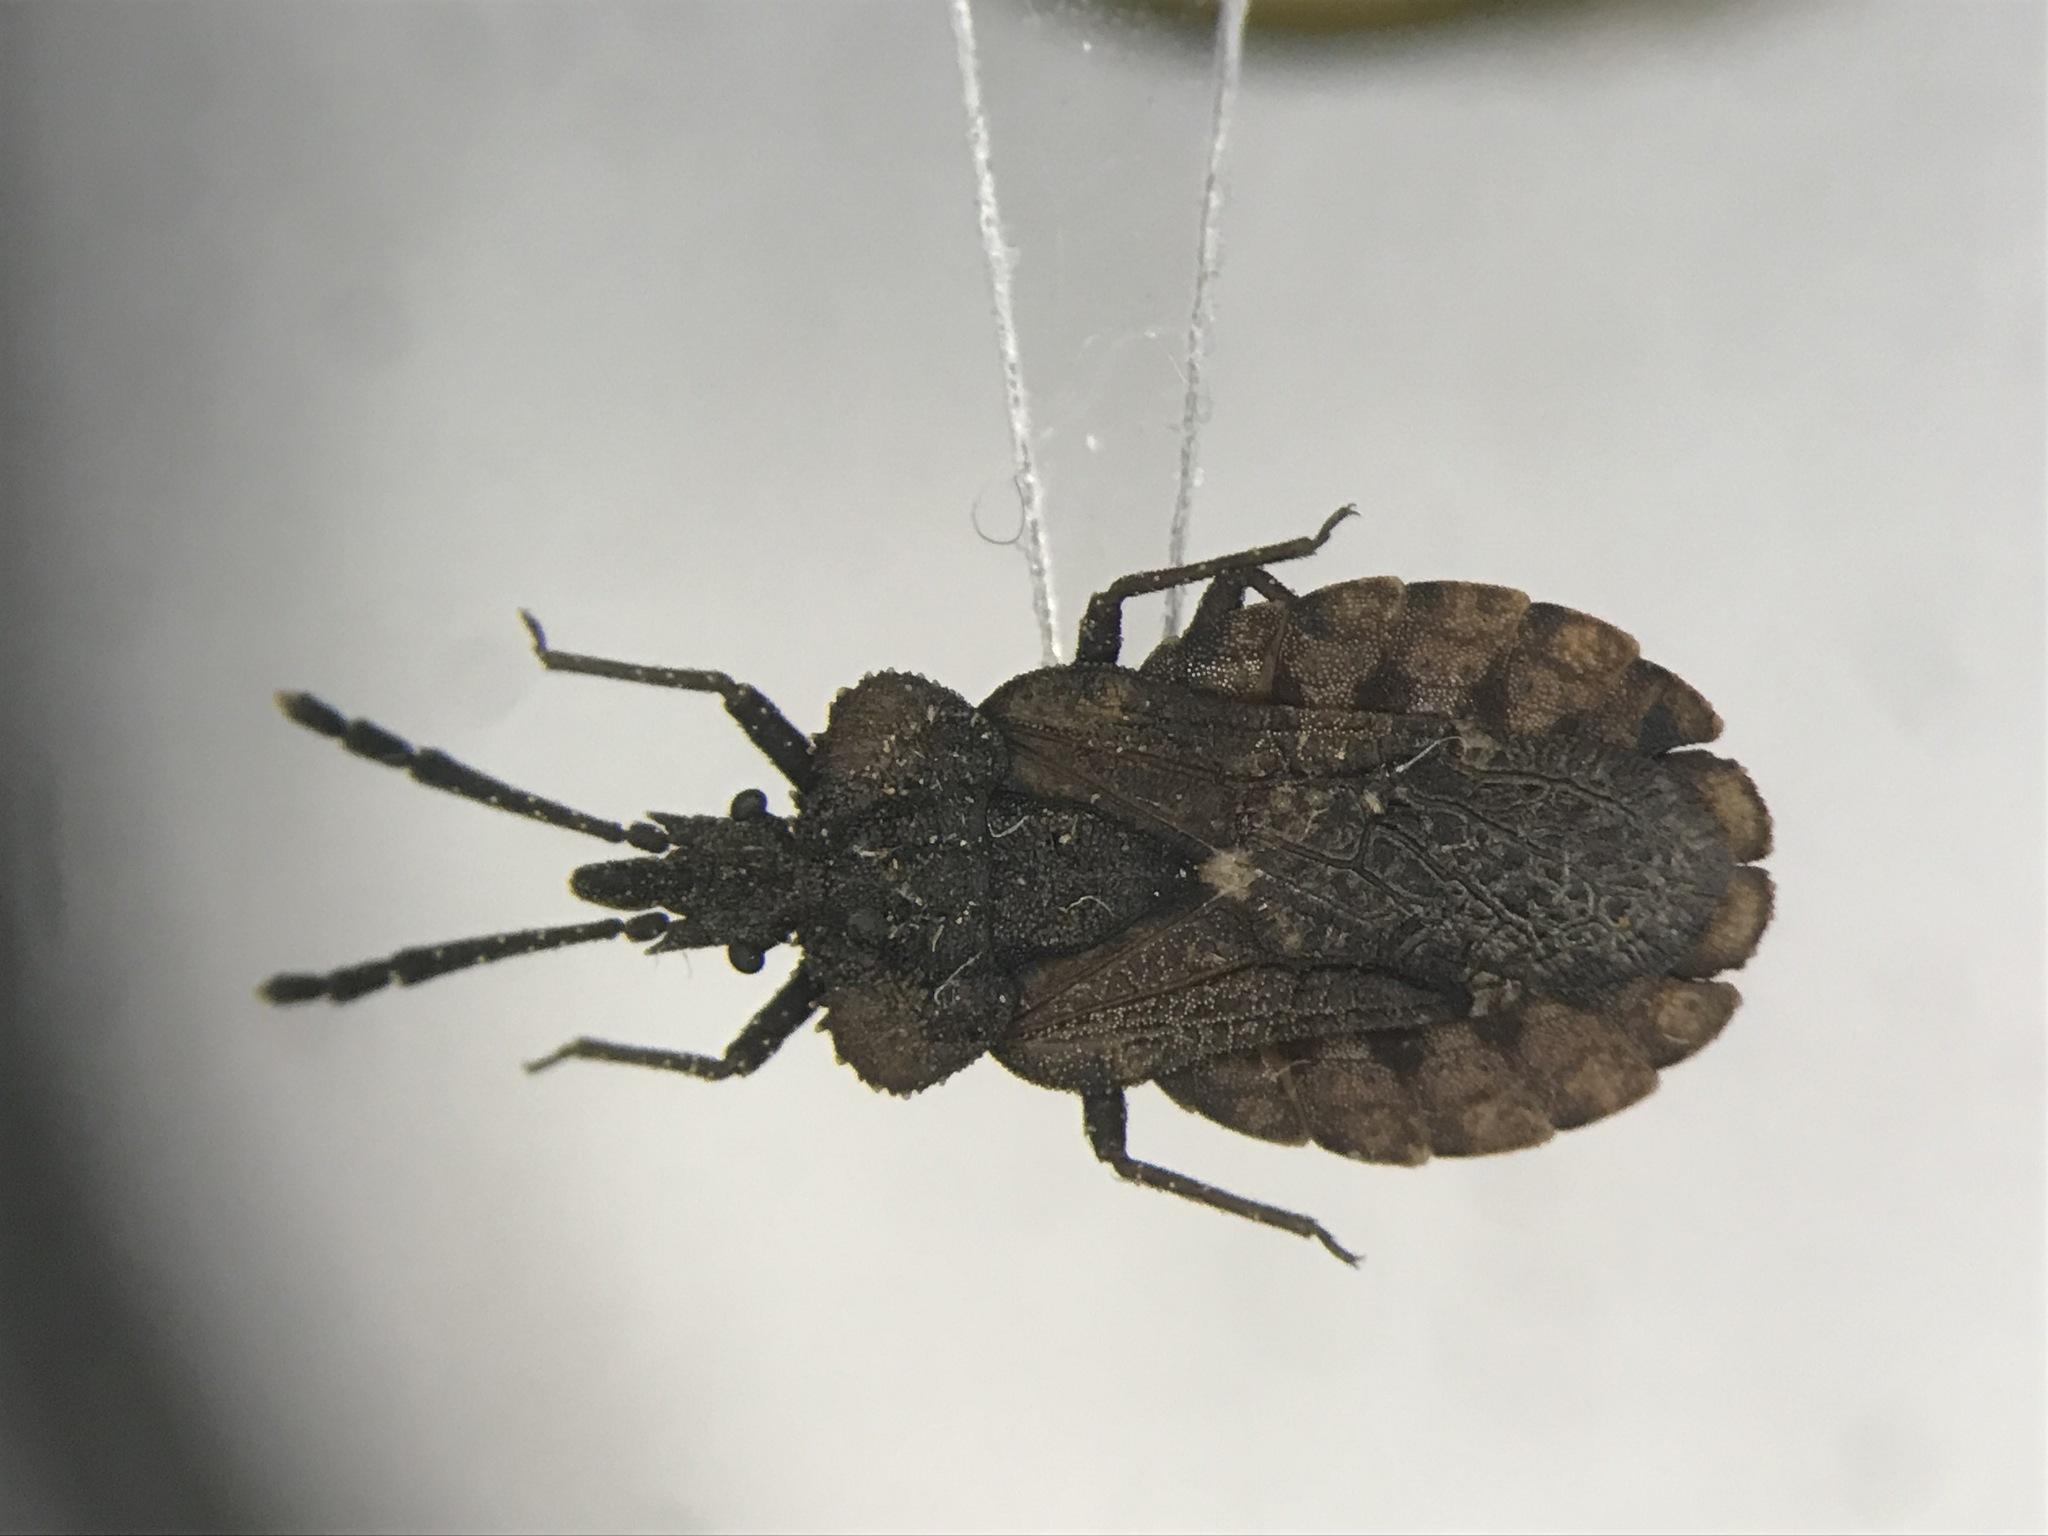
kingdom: Animalia
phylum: Arthropoda
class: Insecta
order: Hemiptera
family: Aradidae
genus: Aradus
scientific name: Aradus inornatus
